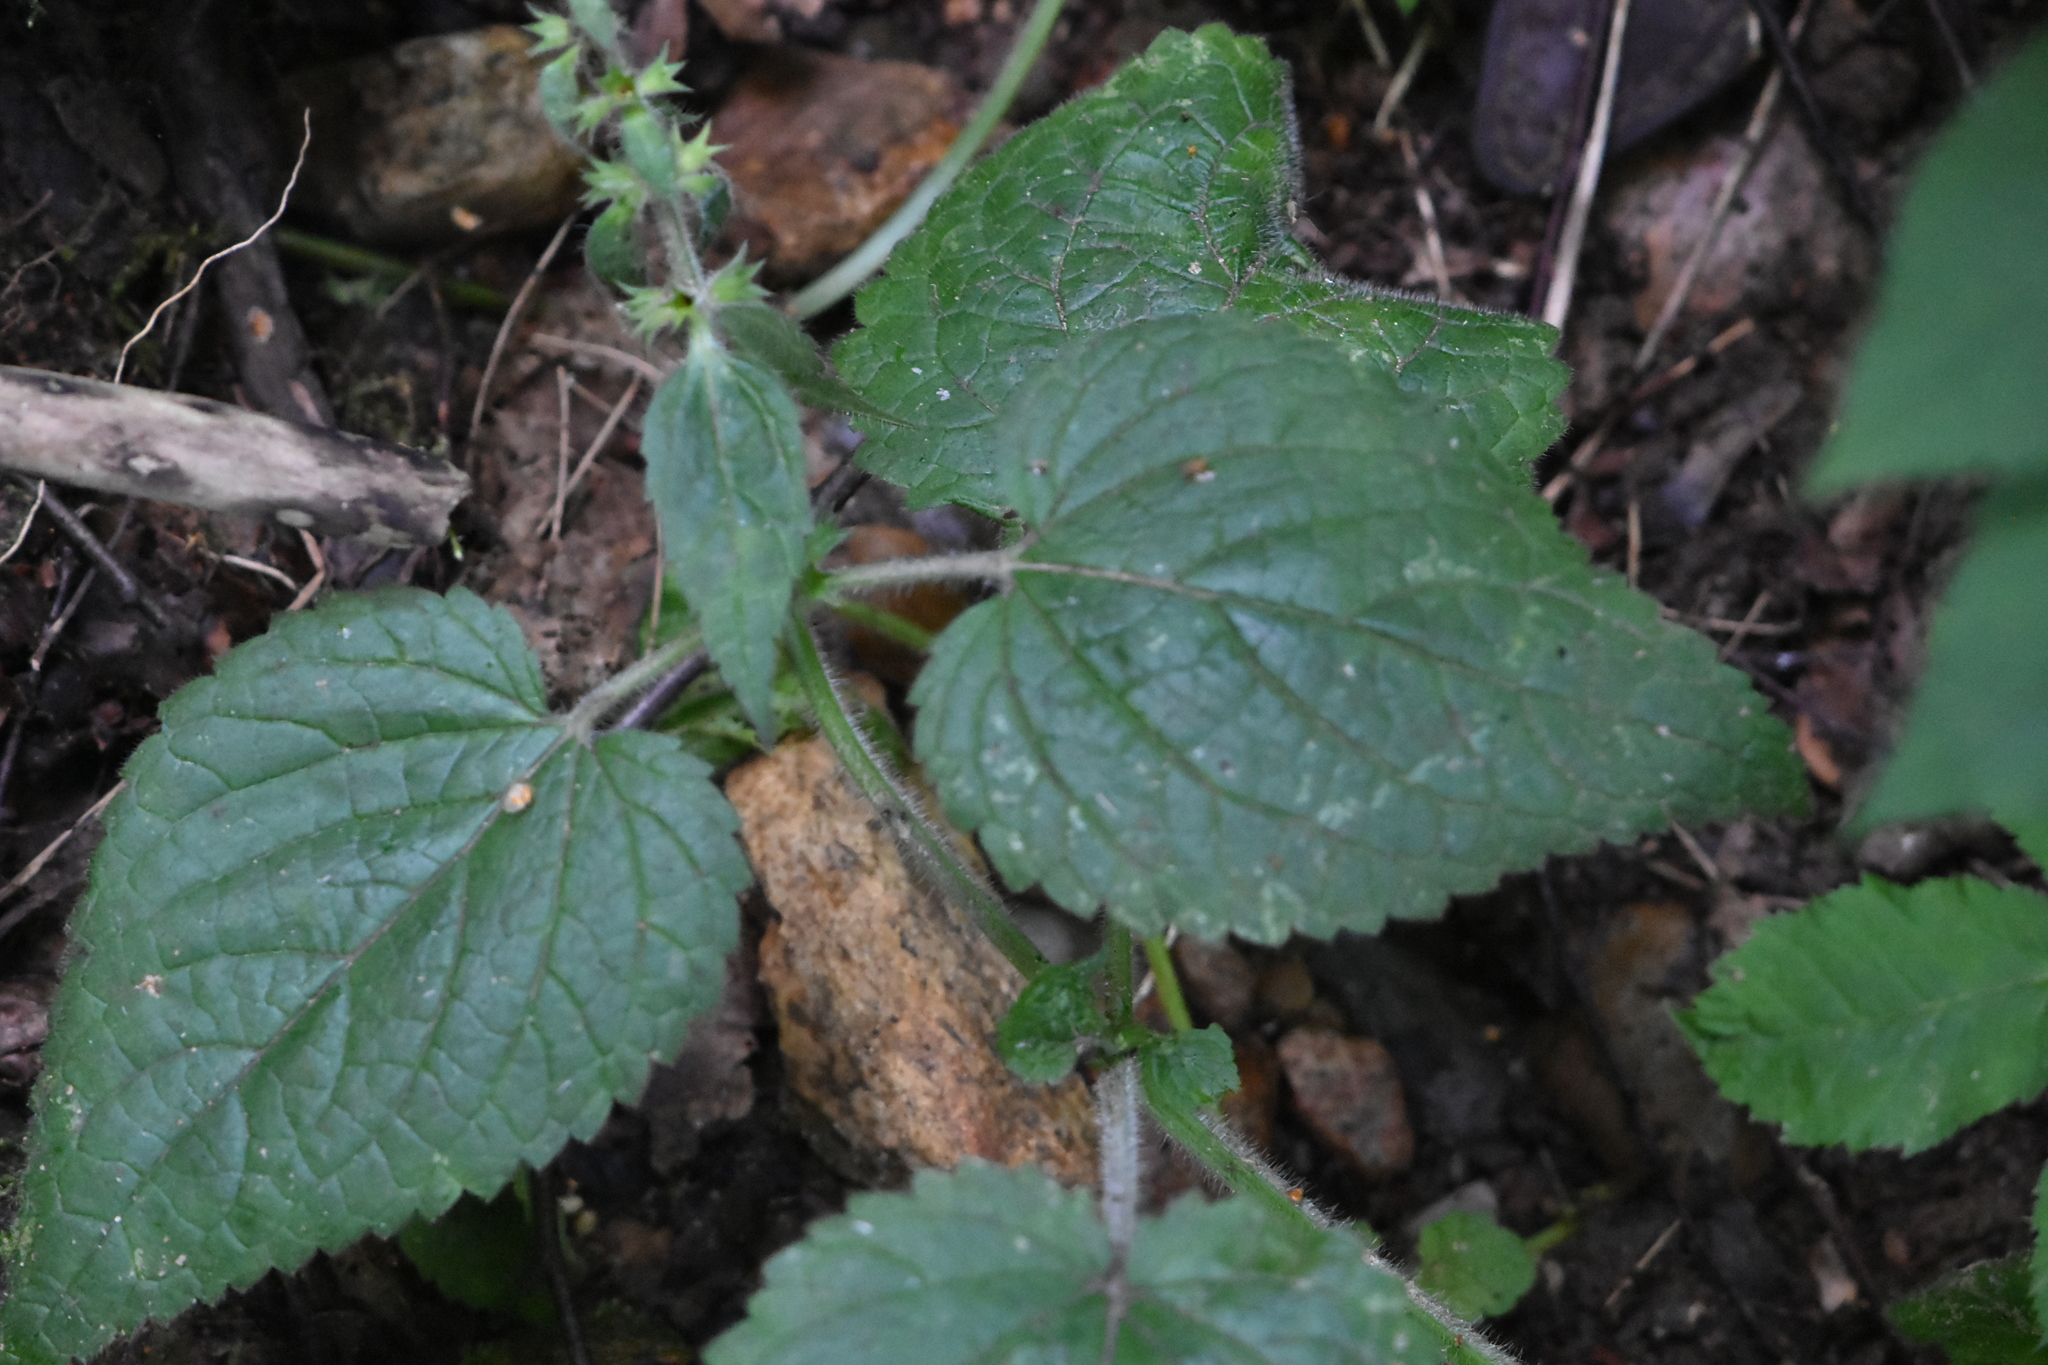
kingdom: Plantae
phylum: Tracheophyta
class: Magnoliopsida
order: Lamiales
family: Lamiaceae
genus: Stachys
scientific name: Stachys sylvatica
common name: Hedge woundwort
